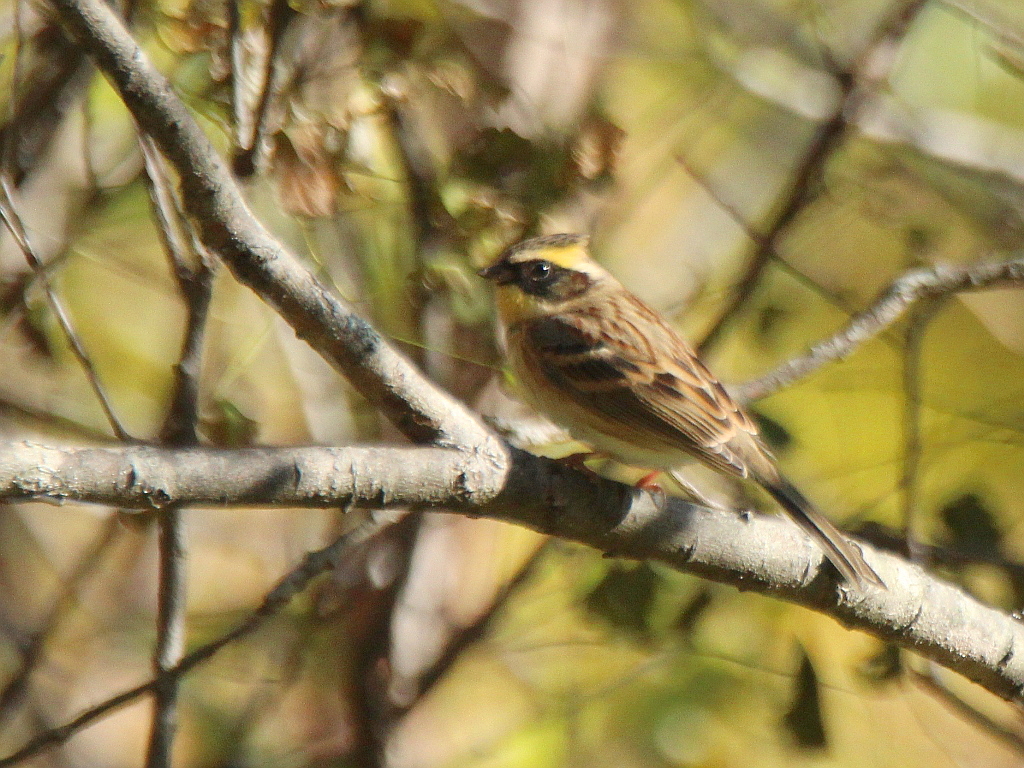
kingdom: Animalia
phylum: Chordata
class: Aves
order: Passeriformes
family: Emberizidae
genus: Emberiza
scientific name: Emberiza elegans
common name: Yellow-throated bunting
